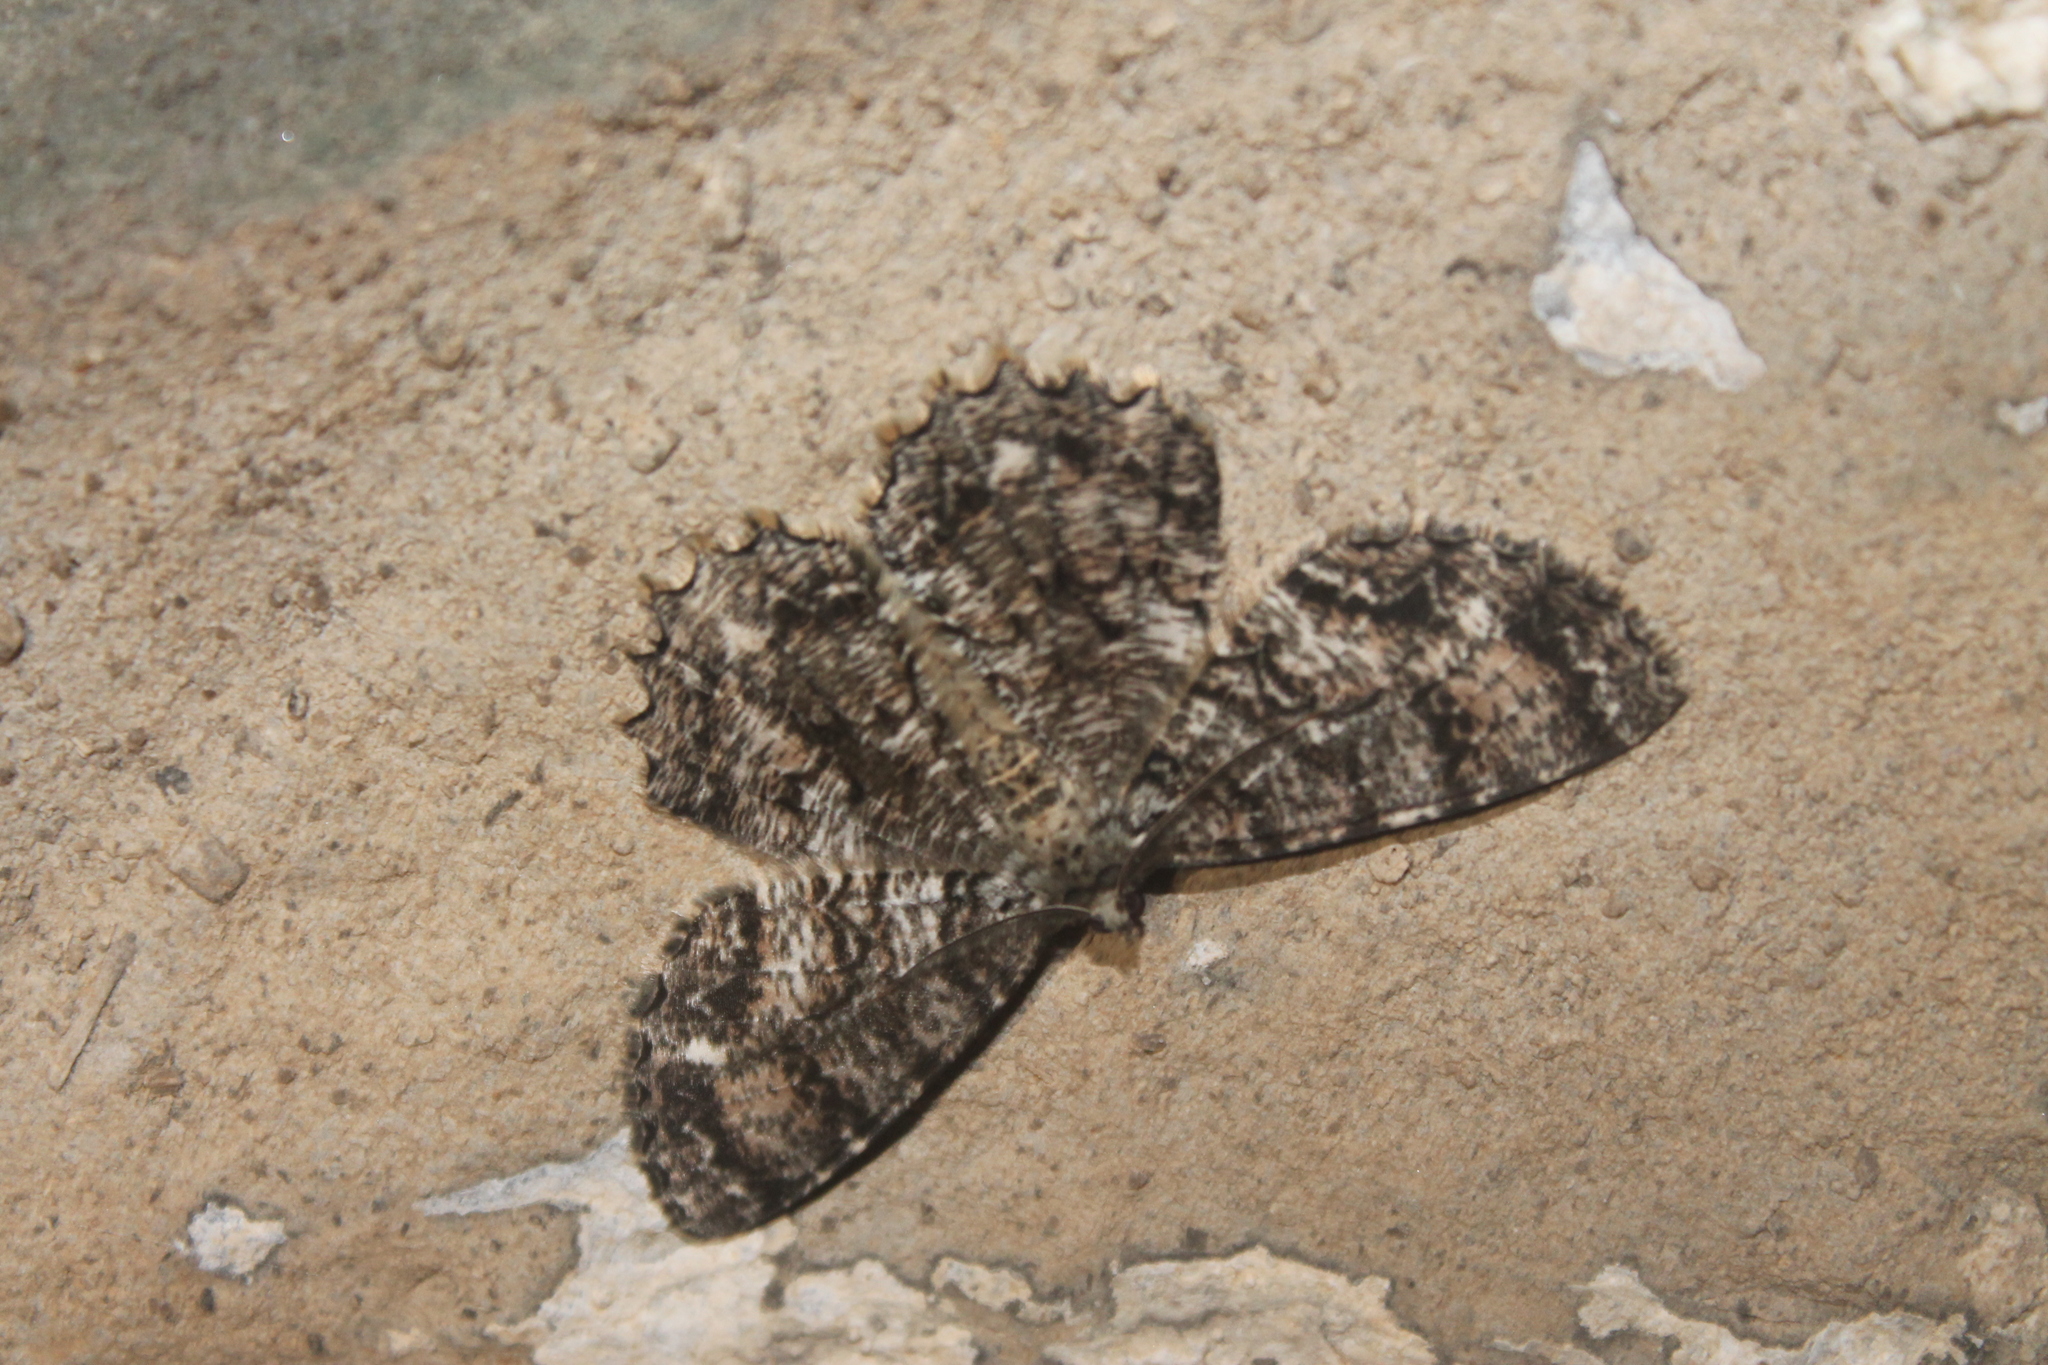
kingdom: Animalia
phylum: Arthropoda
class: Insecta
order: Lepidoptera
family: Geometridae
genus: Epimecis
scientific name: Epimecis hortaria
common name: Tulip-tree beauty
